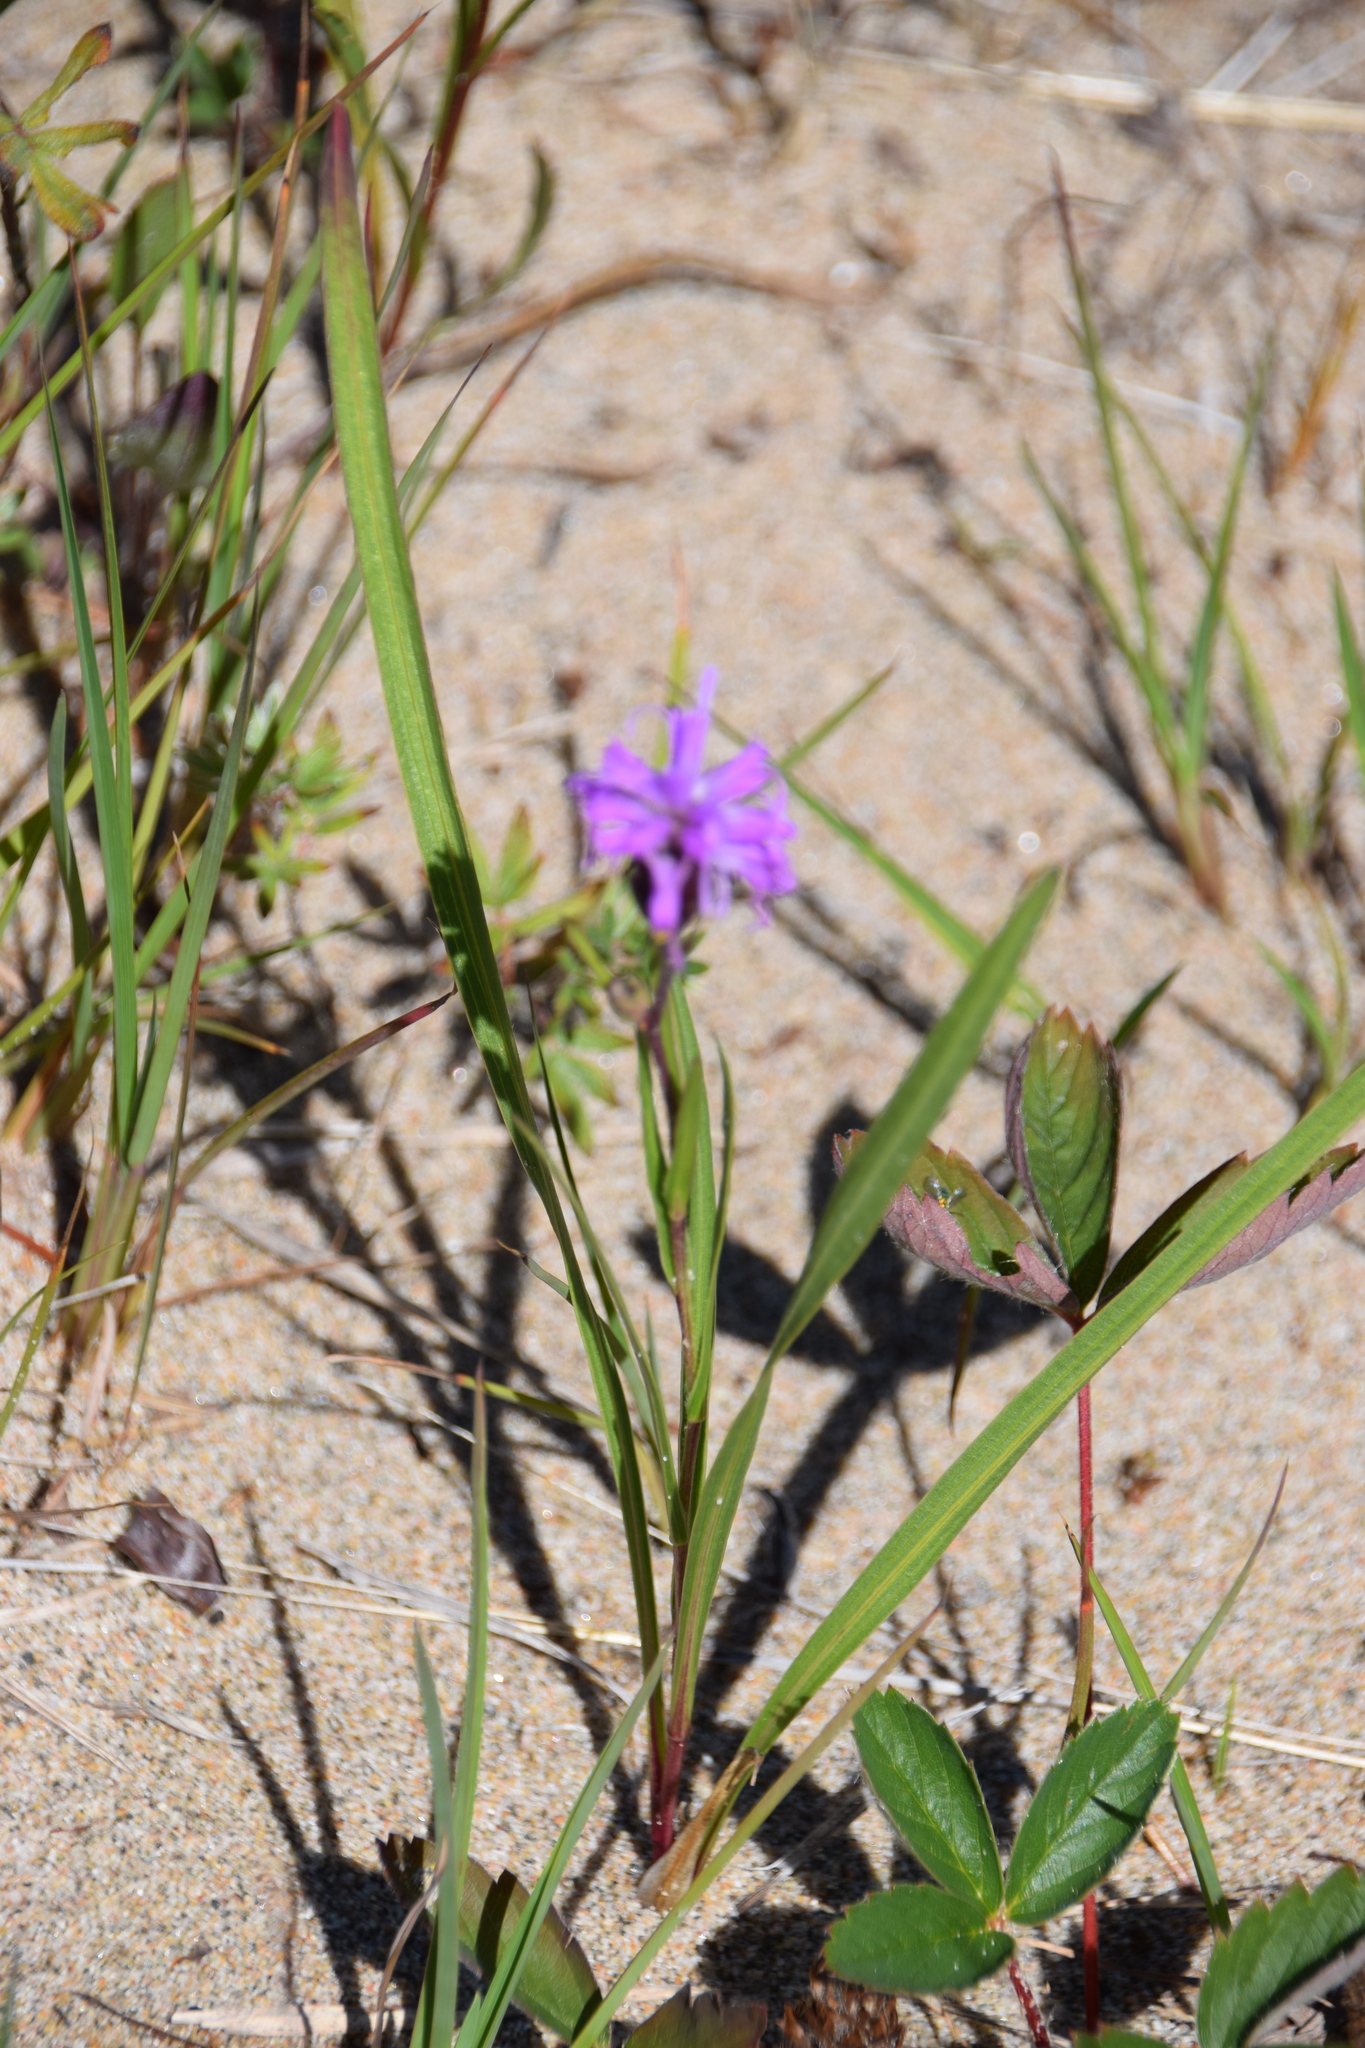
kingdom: Plantae
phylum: Tracheophyta
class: Magnoliopsida
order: Asterales
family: Asteraceae
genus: Liatris
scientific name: Liatris cylindracea
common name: Few-head blazingstar
